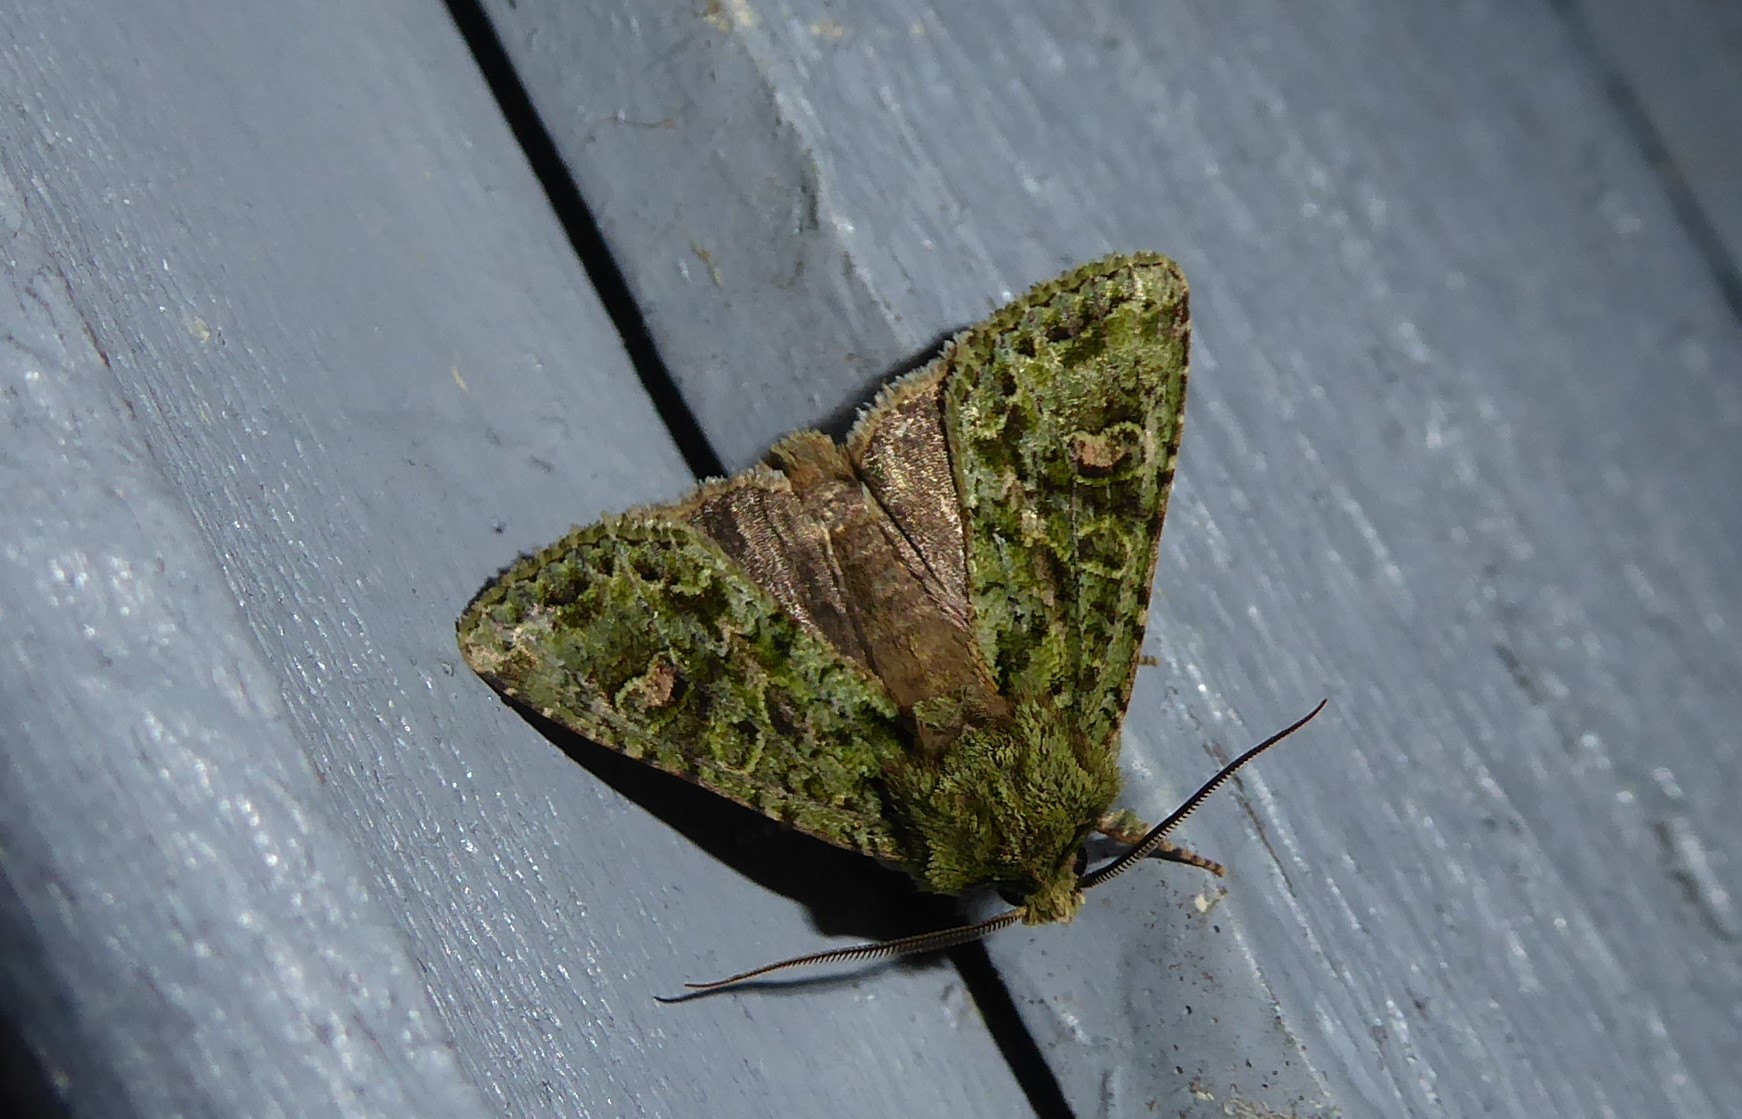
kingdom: Animalia
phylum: Arthropoda
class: Insecta
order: Lepidoptera
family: Noctuidae
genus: Ichneutica
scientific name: Ichneutica
